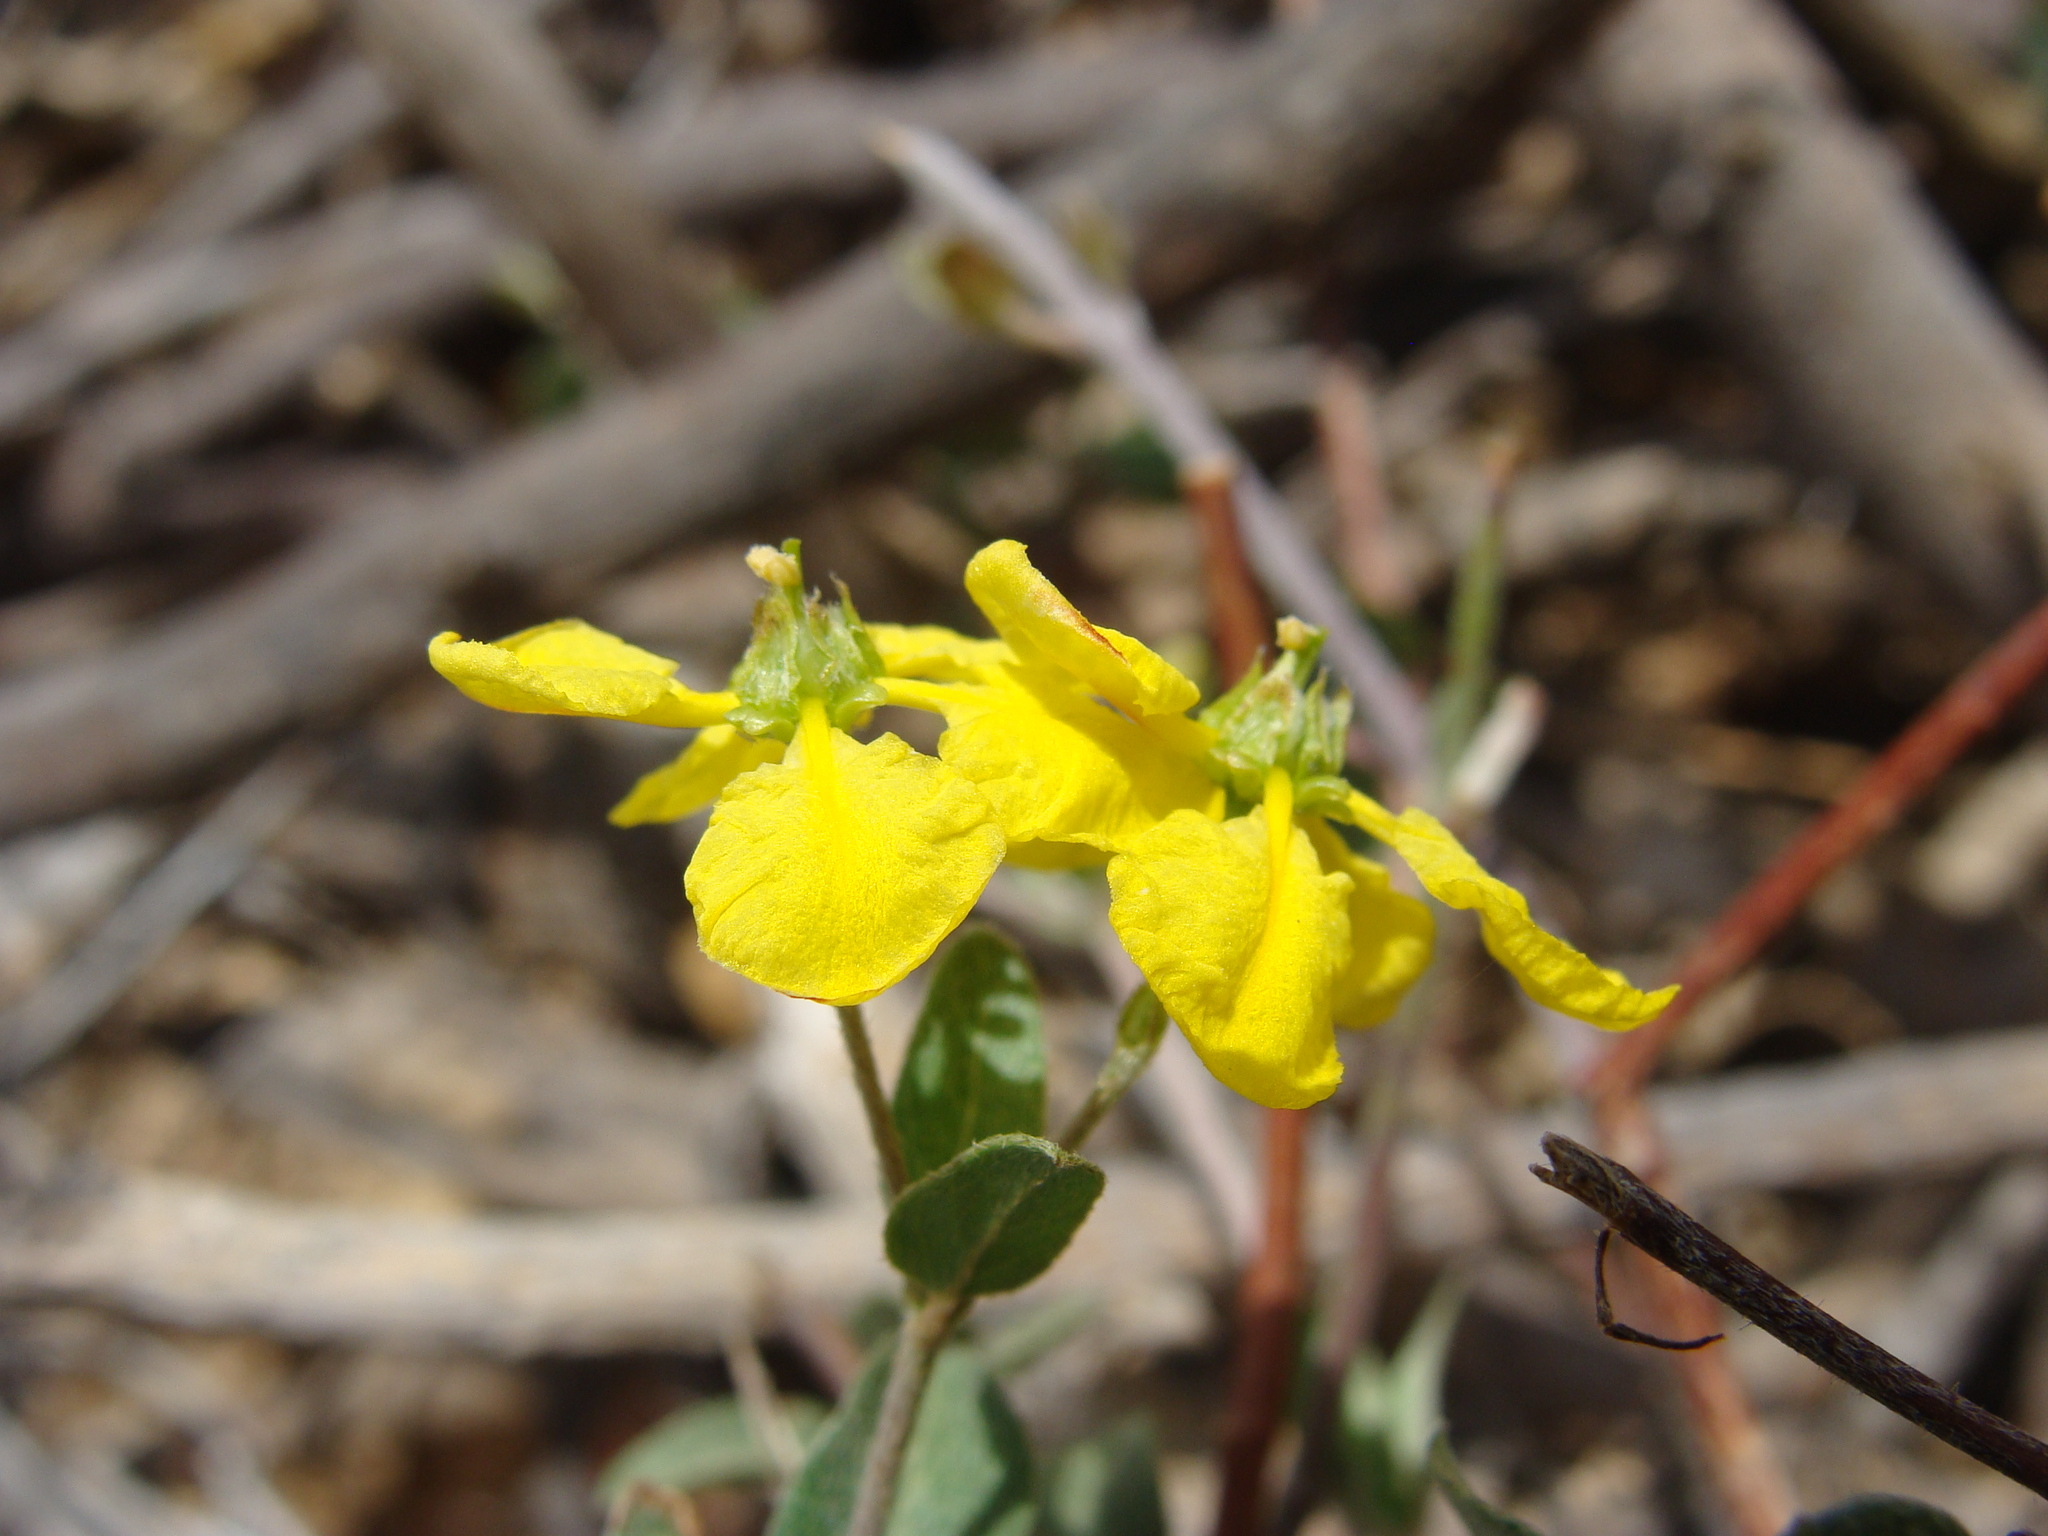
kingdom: Plantae
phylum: Tracheophyta
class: Magnoliopsida
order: Malpighiales
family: Malpighiaceae
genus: Cottsia
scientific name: Cottsia californica
